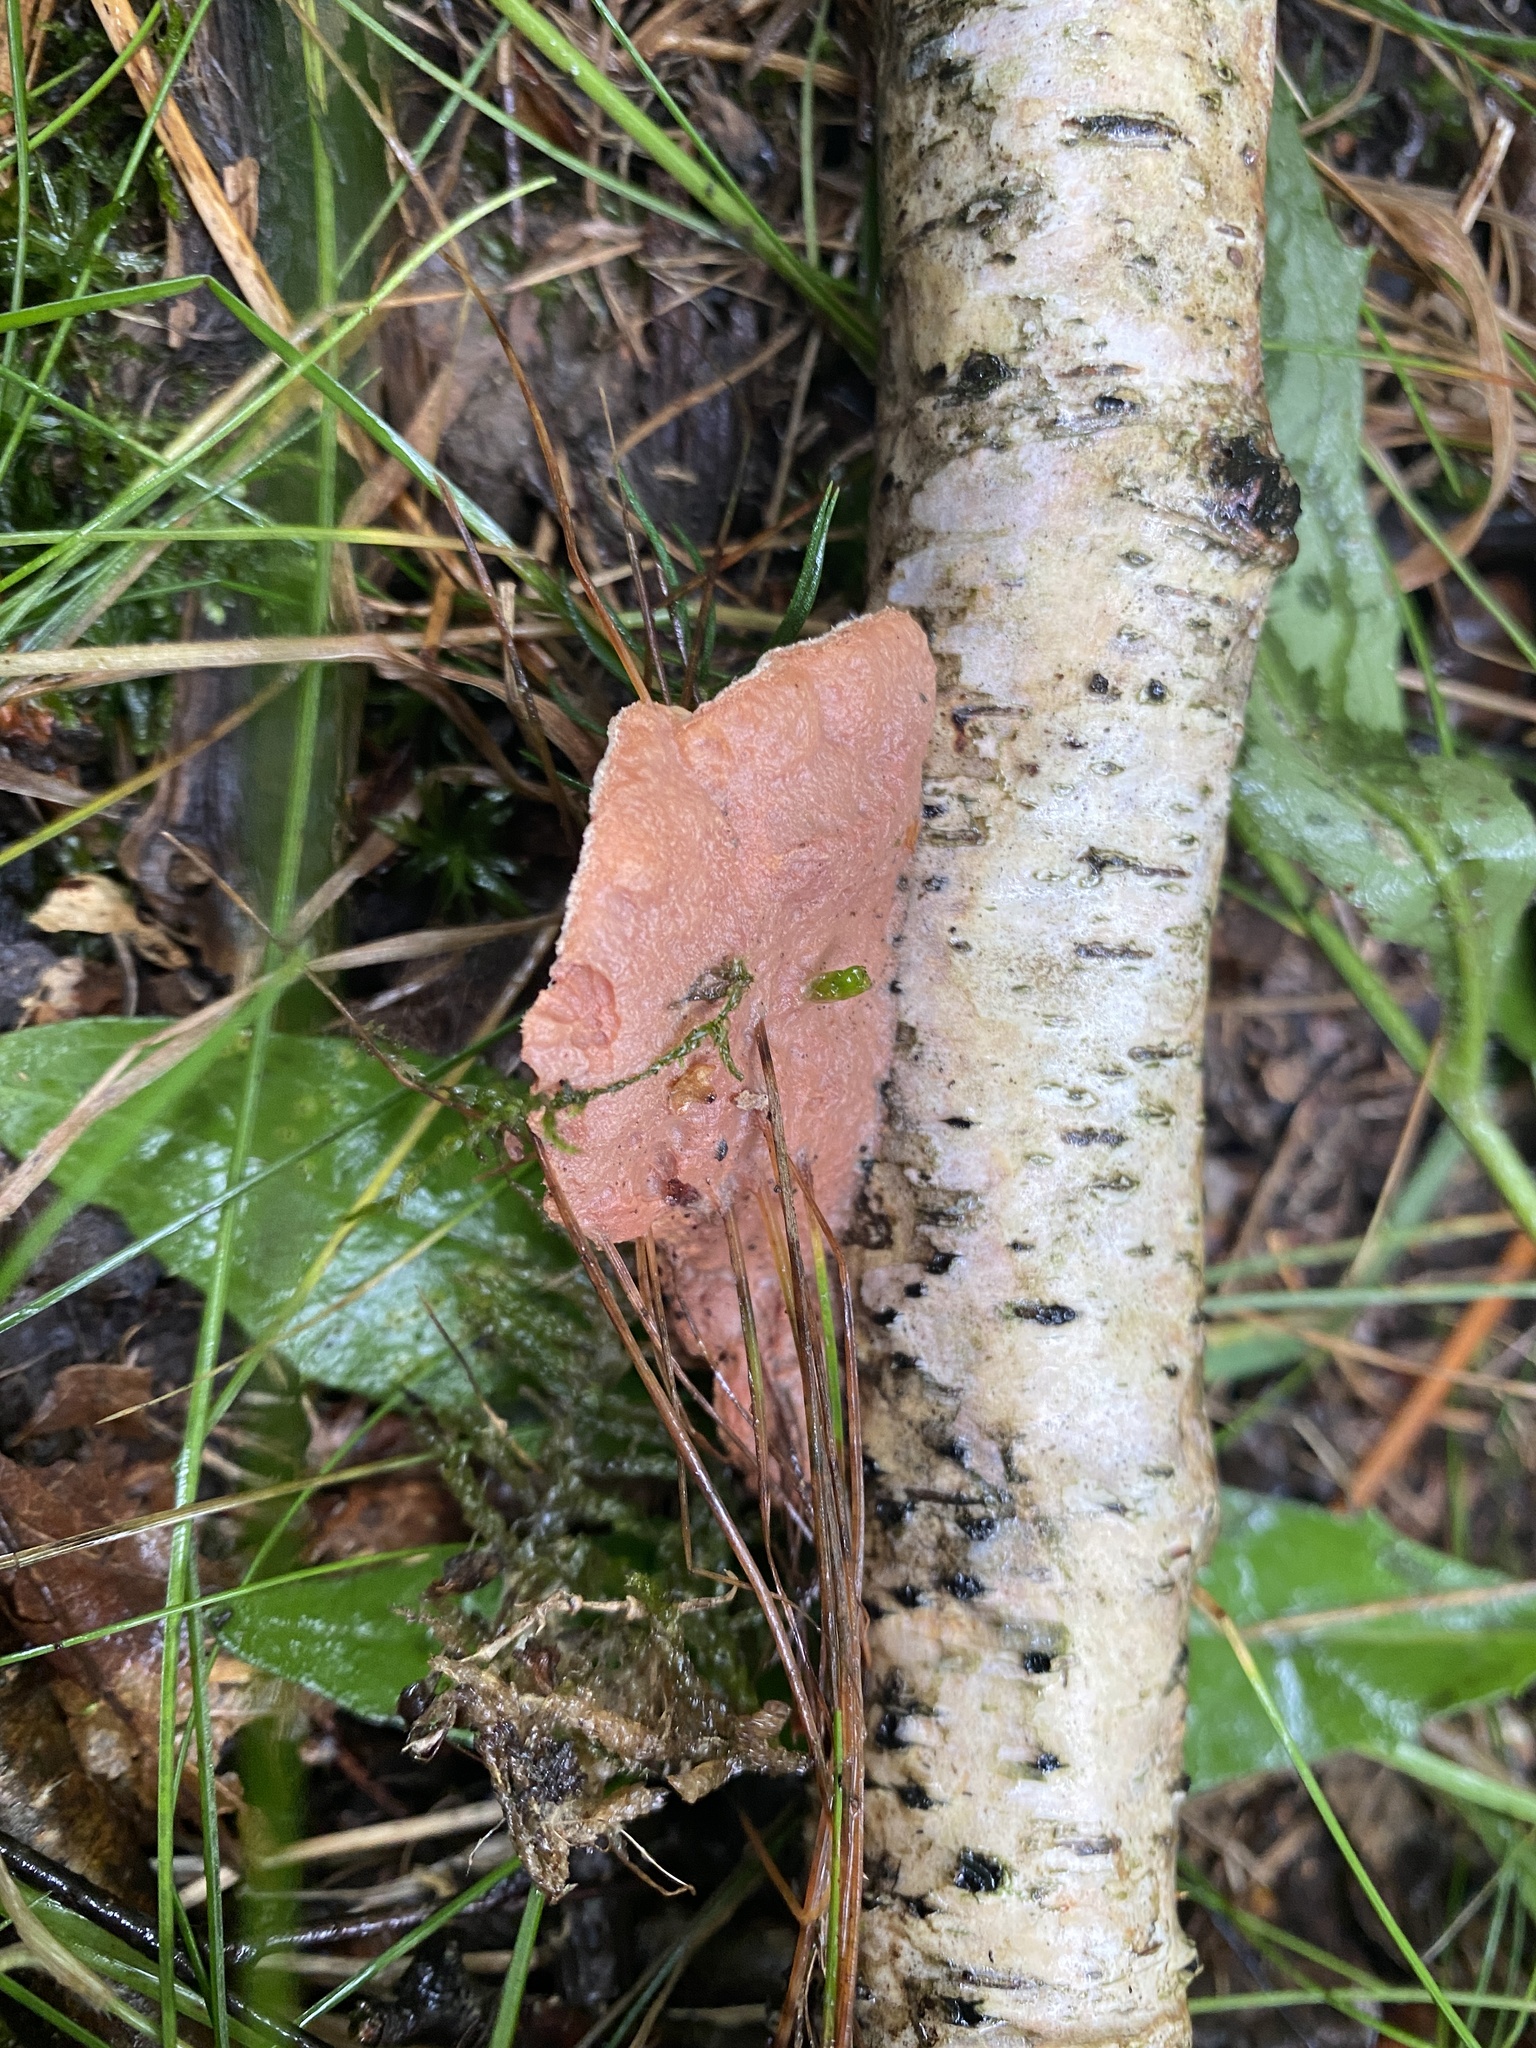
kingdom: Fungi
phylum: Basidiomycota
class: Agaricomycetes
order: Polyporales
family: Phanerochaetaceae
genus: Hapalopilus
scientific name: Hapalopilus rutilans
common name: Tender nesting polypore
